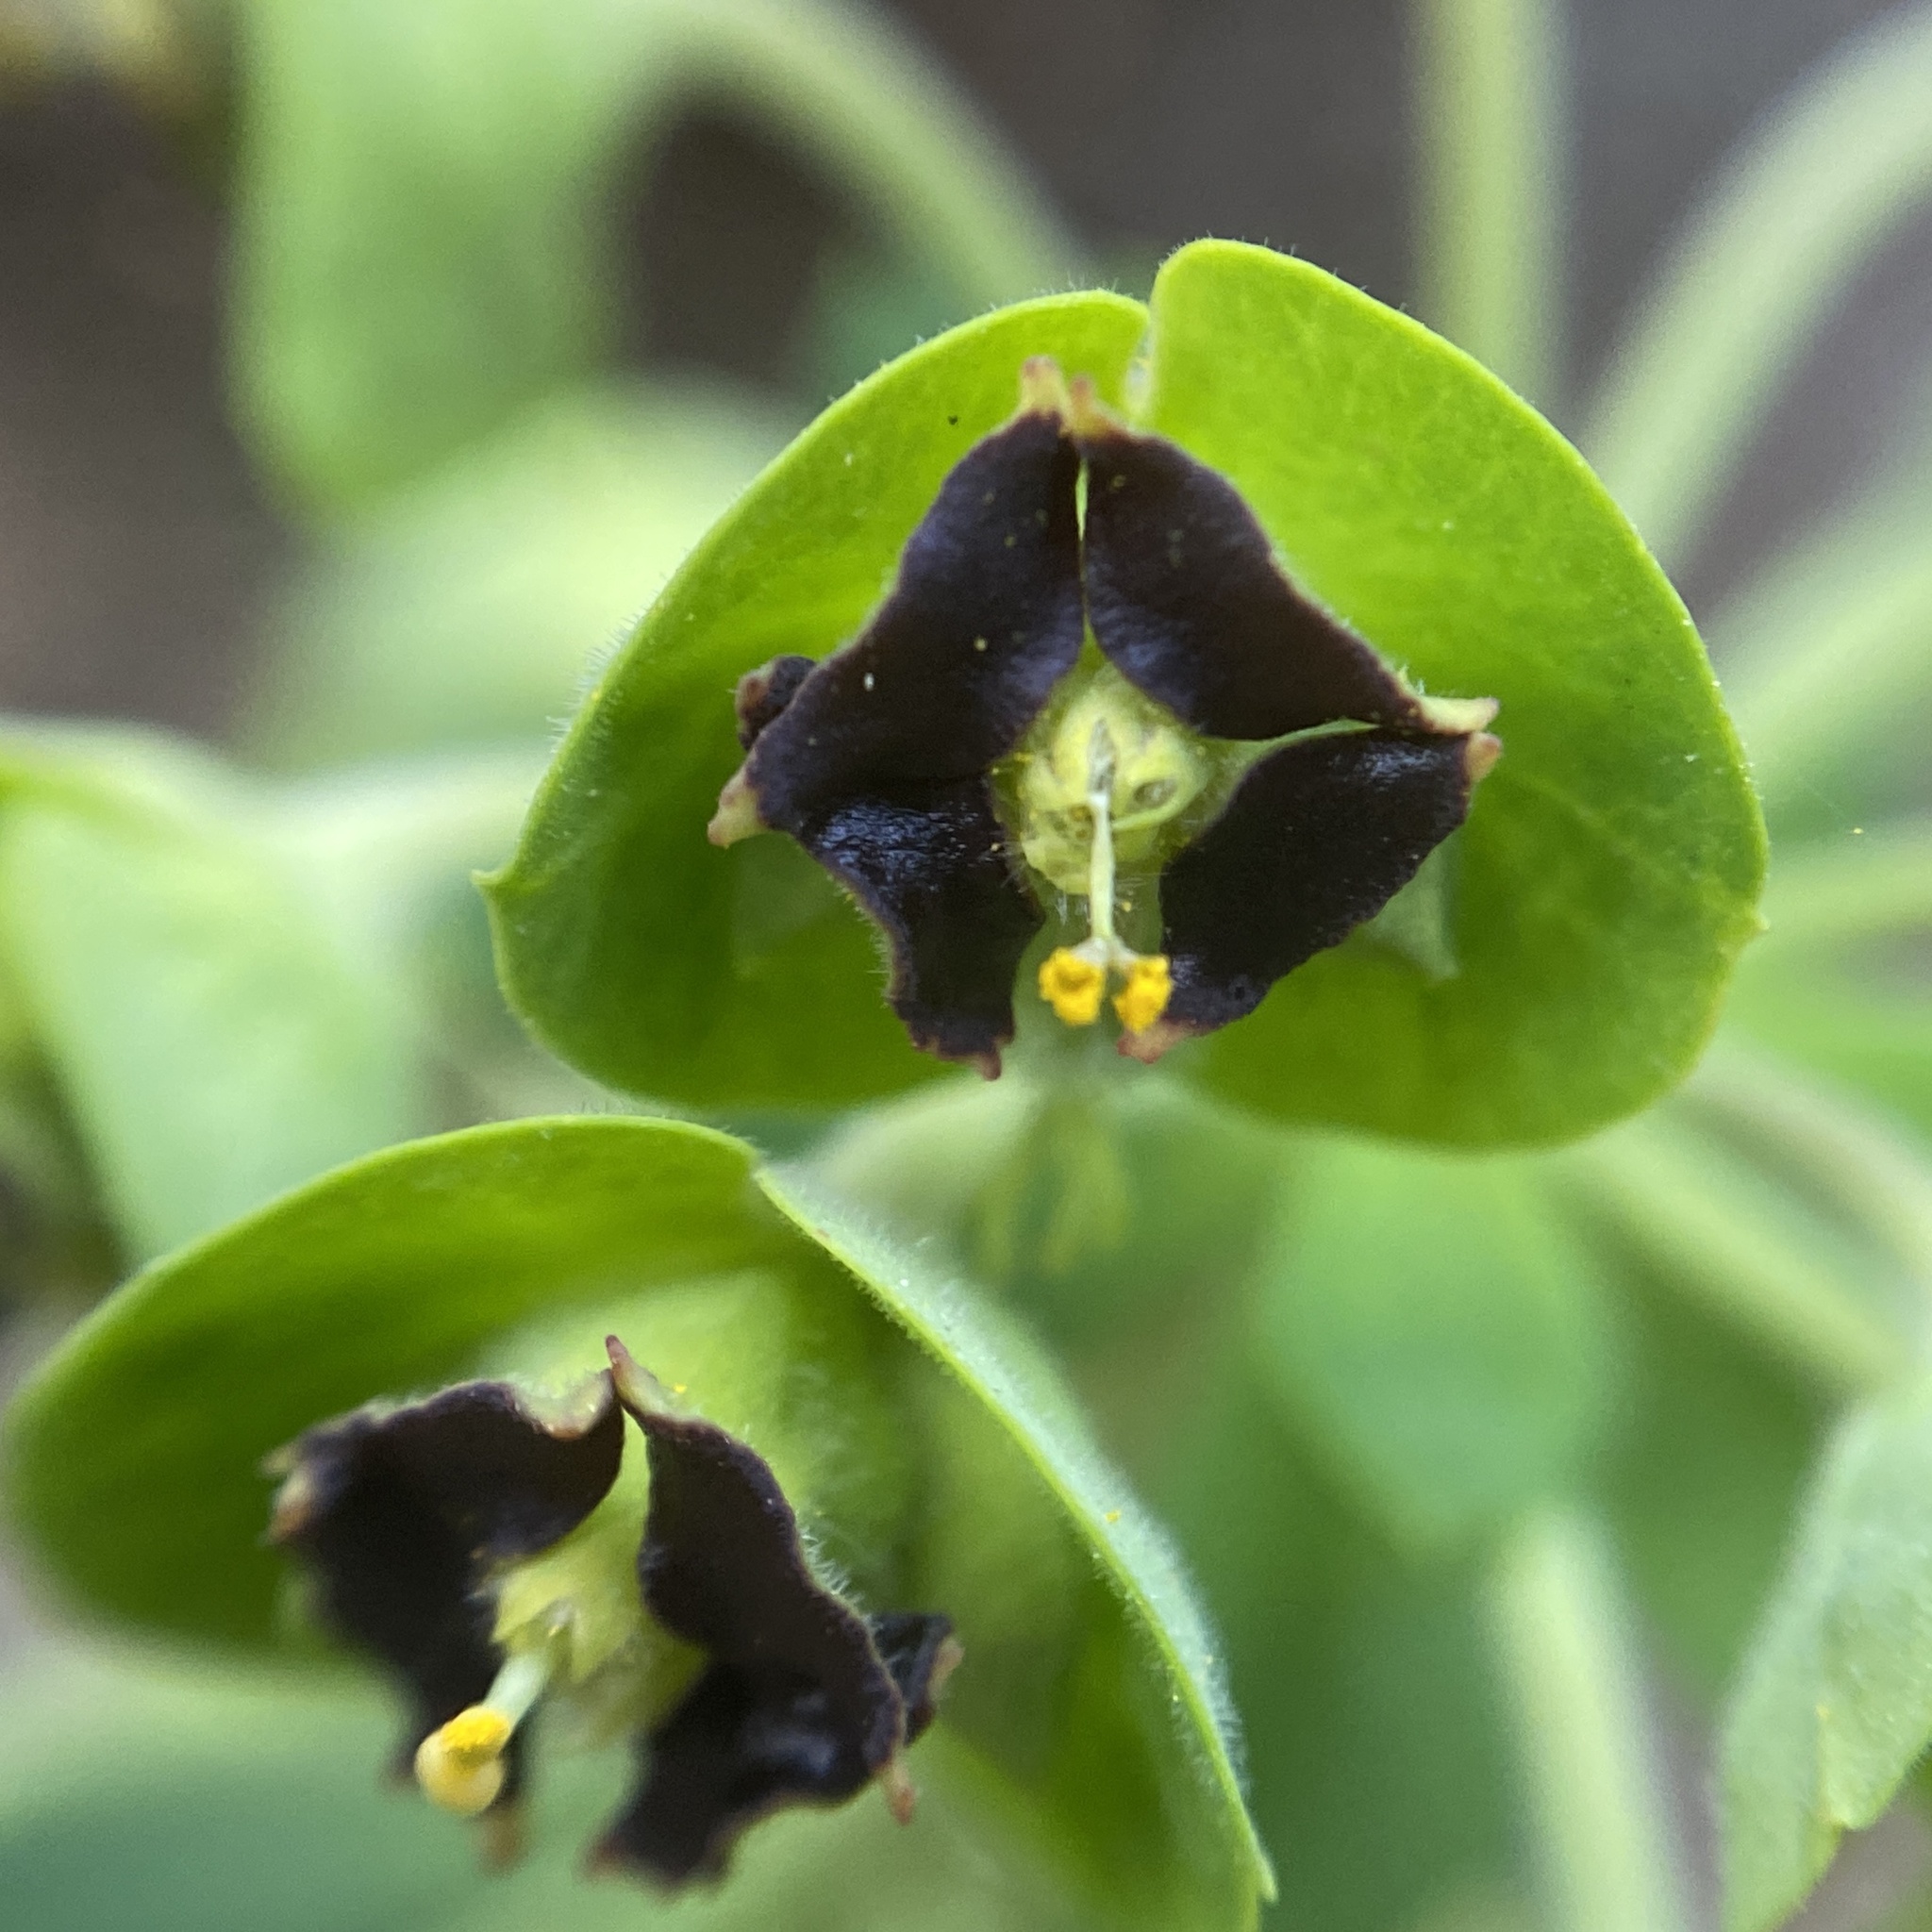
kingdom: Plantae
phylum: Tracheophyta
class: Magnoliopsida
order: Malpighiales
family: Euphorbiaceae
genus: Euphorbia
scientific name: Euphorbia characias
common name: Mediterranean spurge
